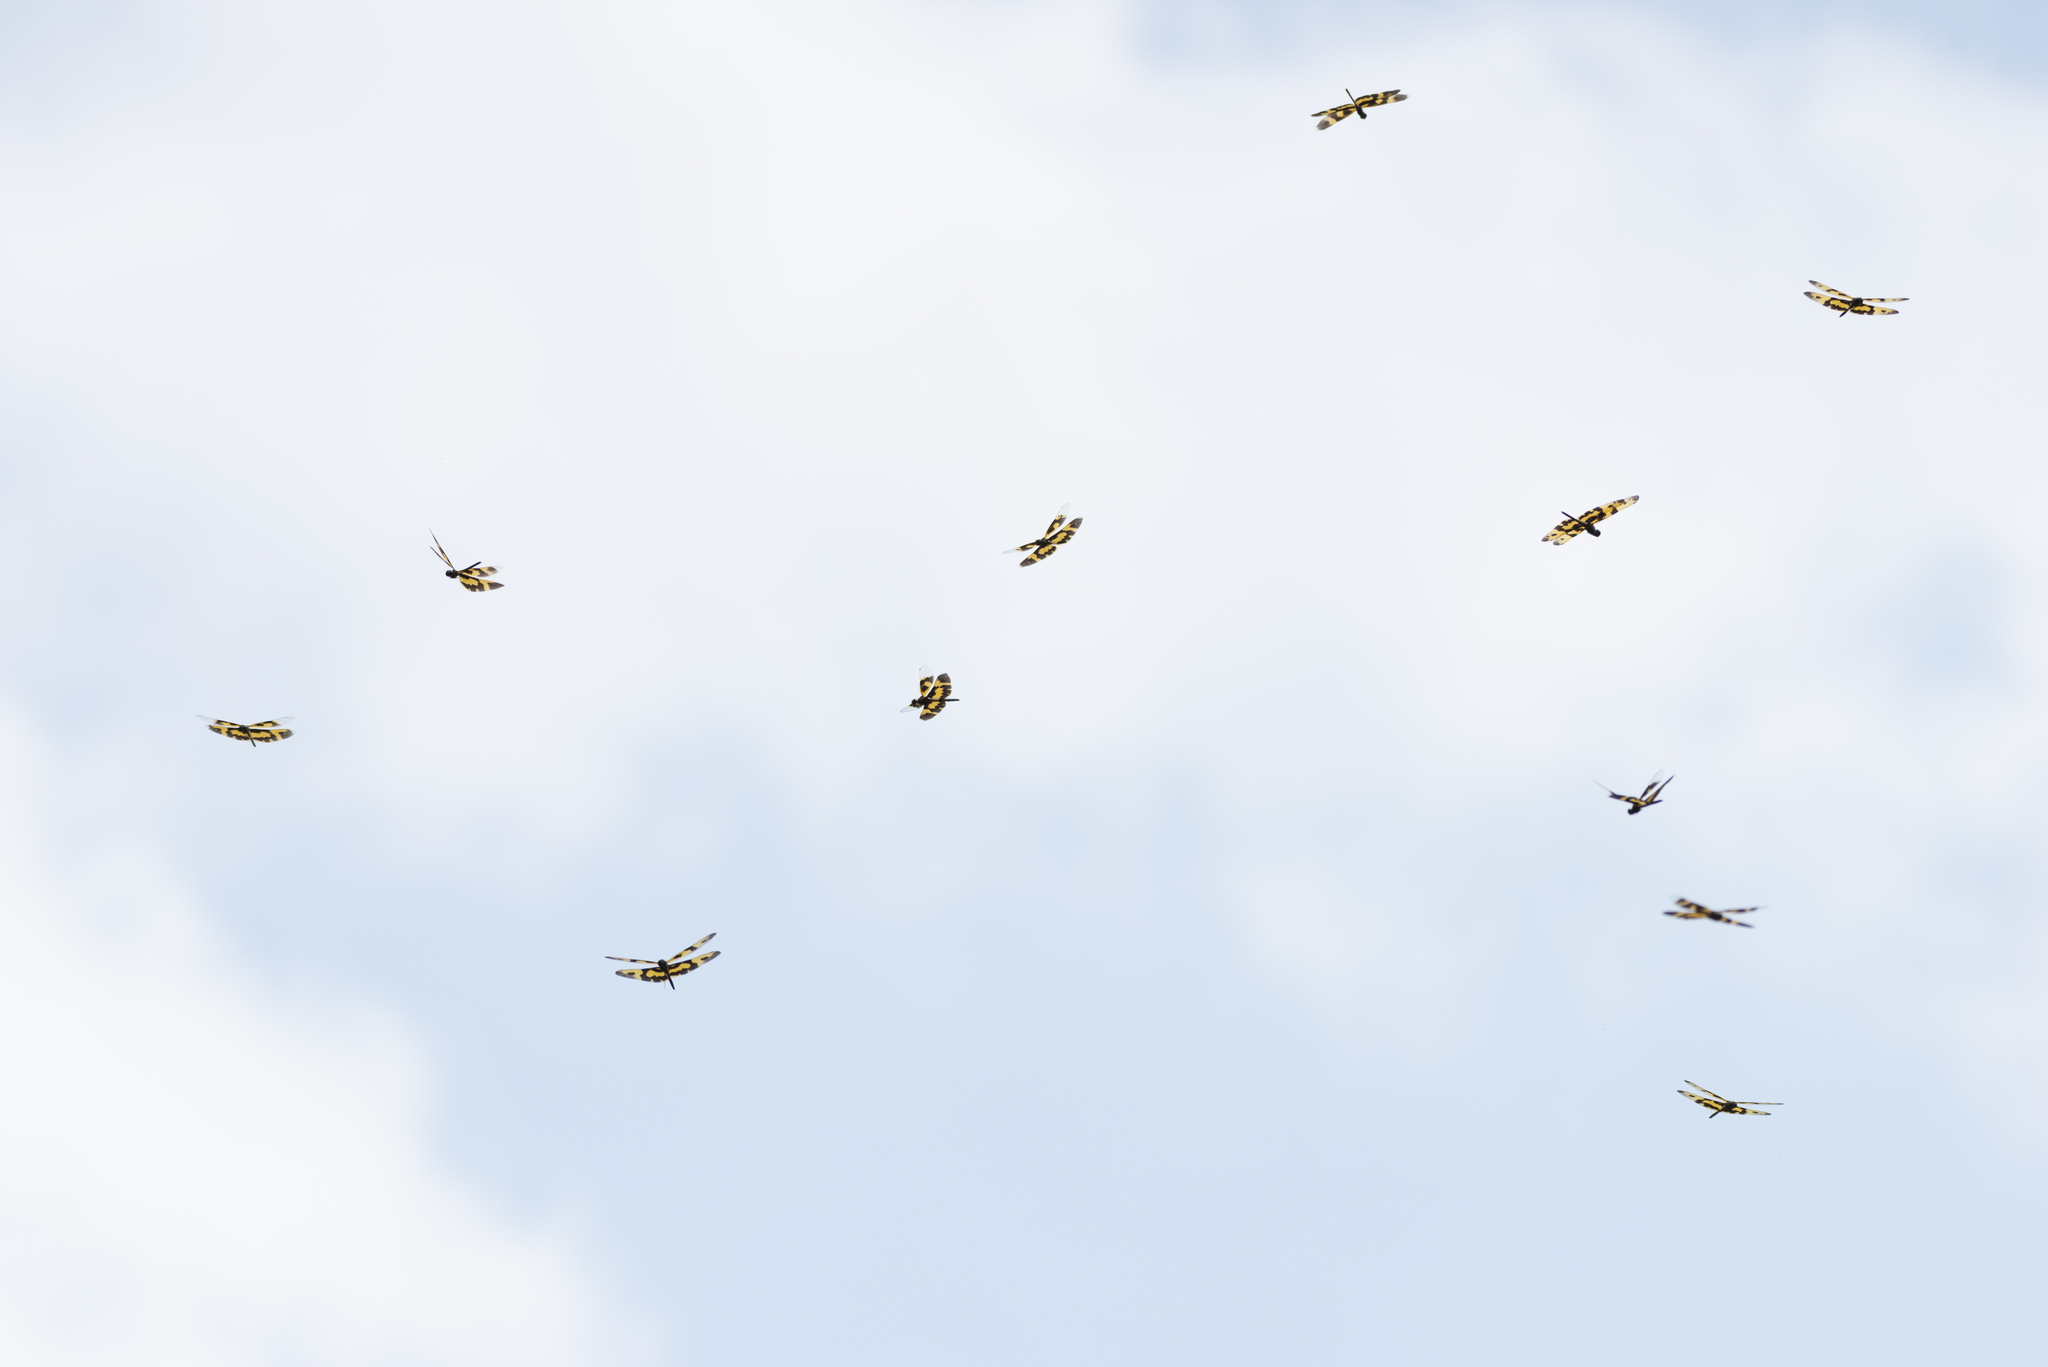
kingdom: Animalia
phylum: Arthropoda
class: Insecta
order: Odonata
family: Libellulidae
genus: Rhyothemis
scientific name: Rhyothemis variegata
